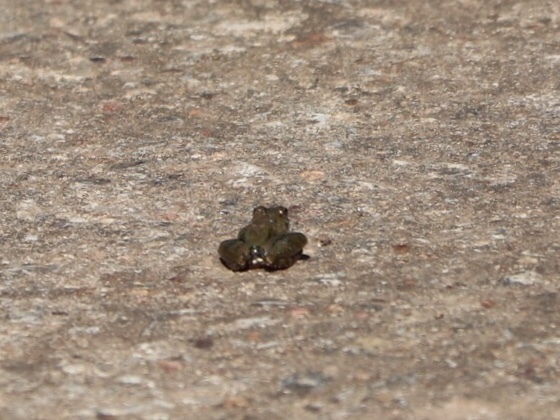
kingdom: Animalia
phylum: Chordata
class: Amphibia
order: Anura
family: Hylidae
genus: Acris
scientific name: Acris blanchardi
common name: Blanchard's cricket frog
